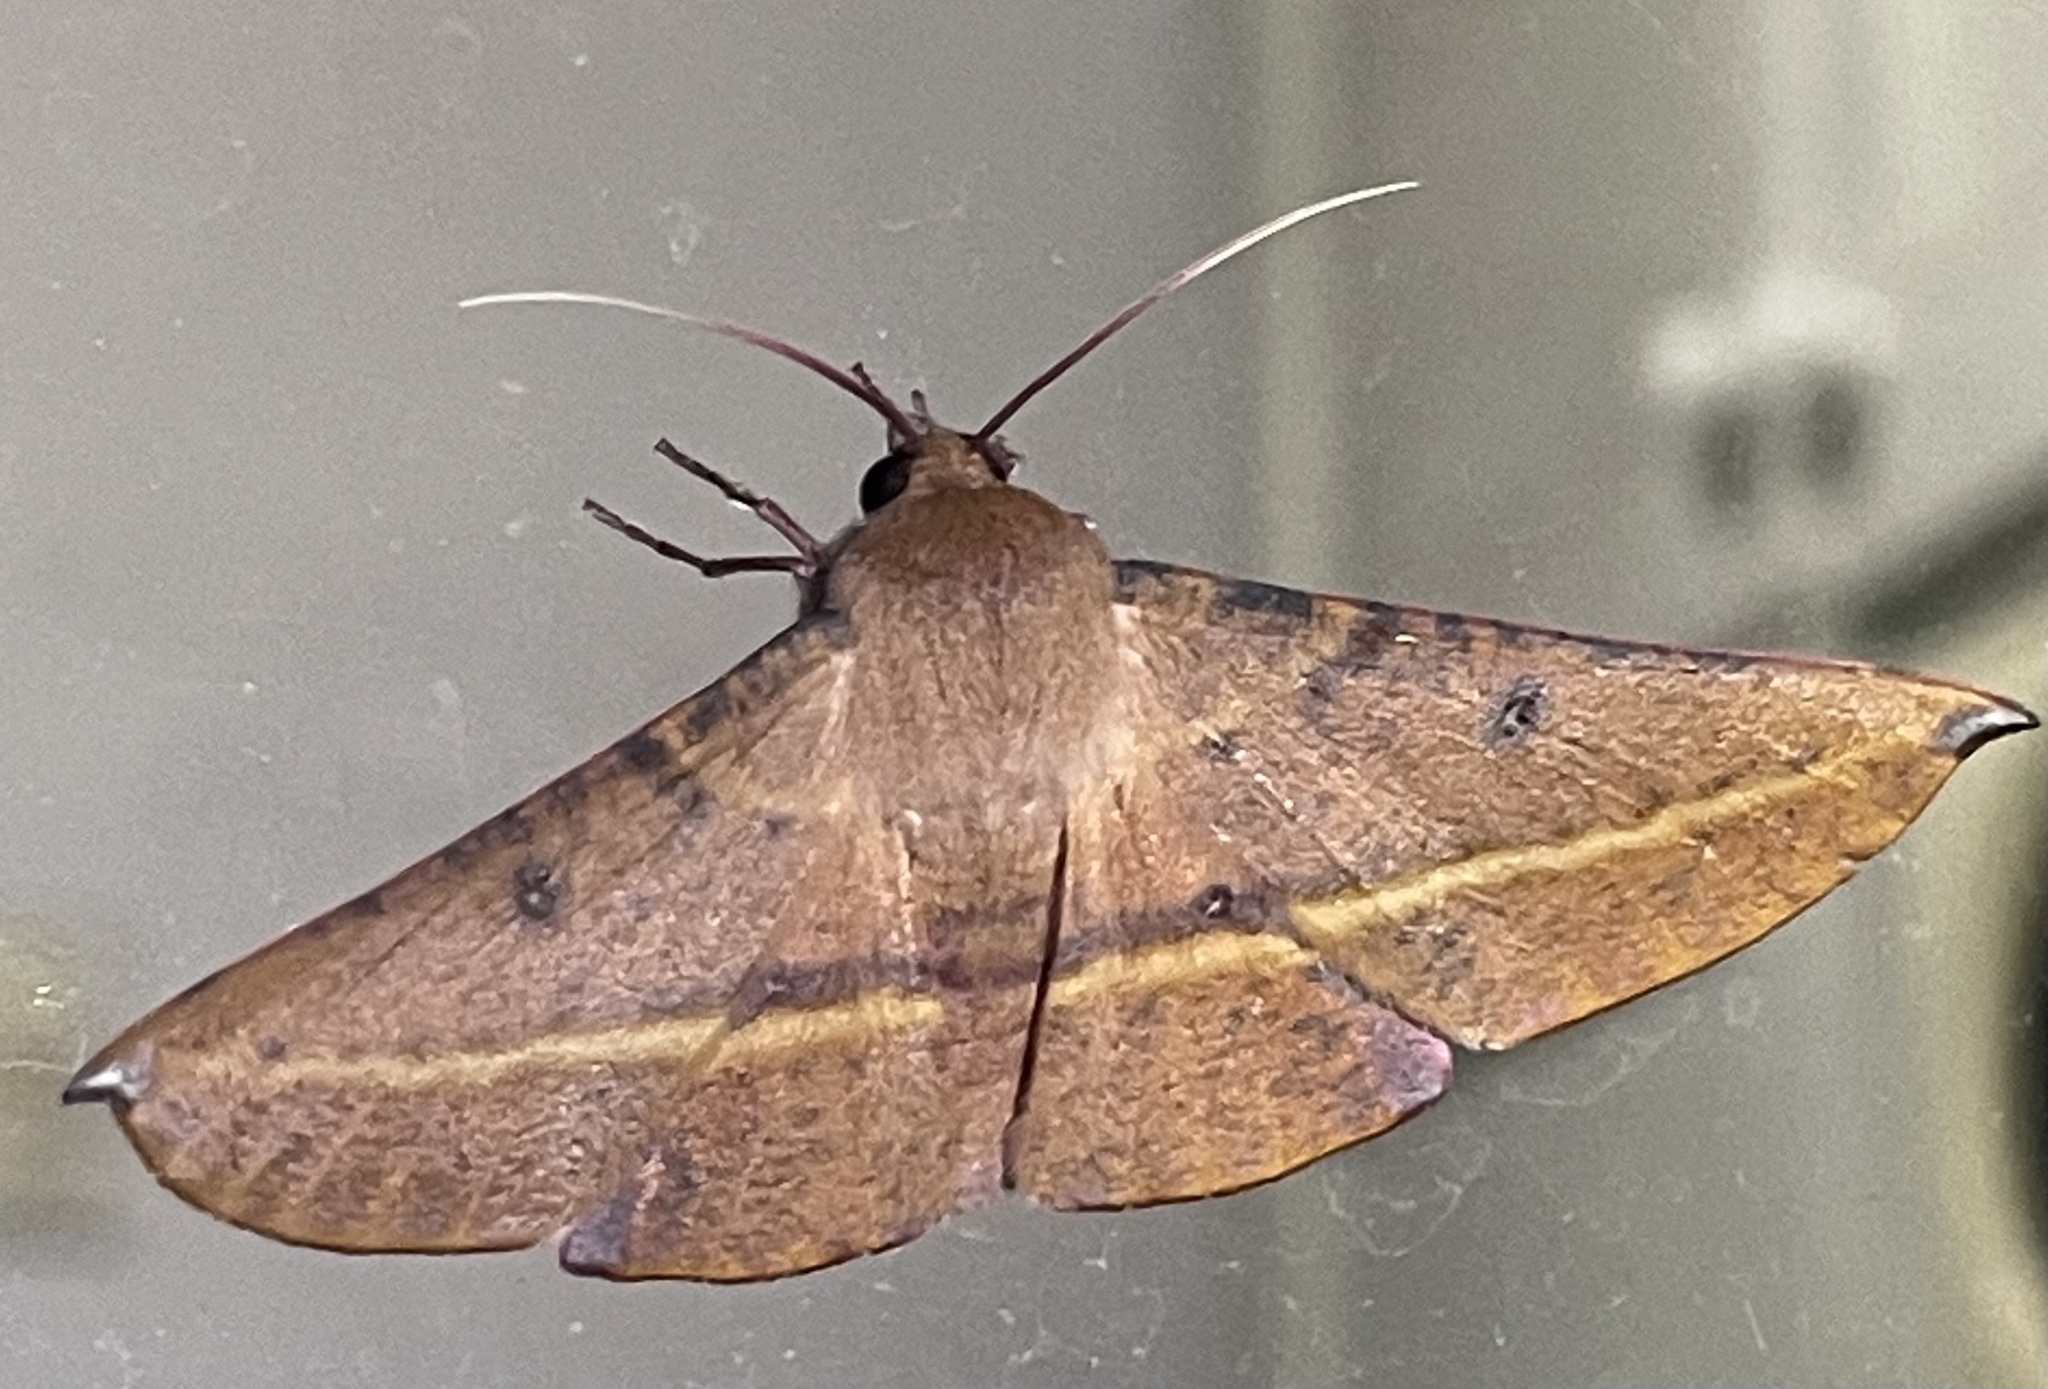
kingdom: Animalia
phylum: Arthropoda
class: Insecta
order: Lepidoptera
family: Geometridae
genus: Oenochroma
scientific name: Oenochroma vinaria
